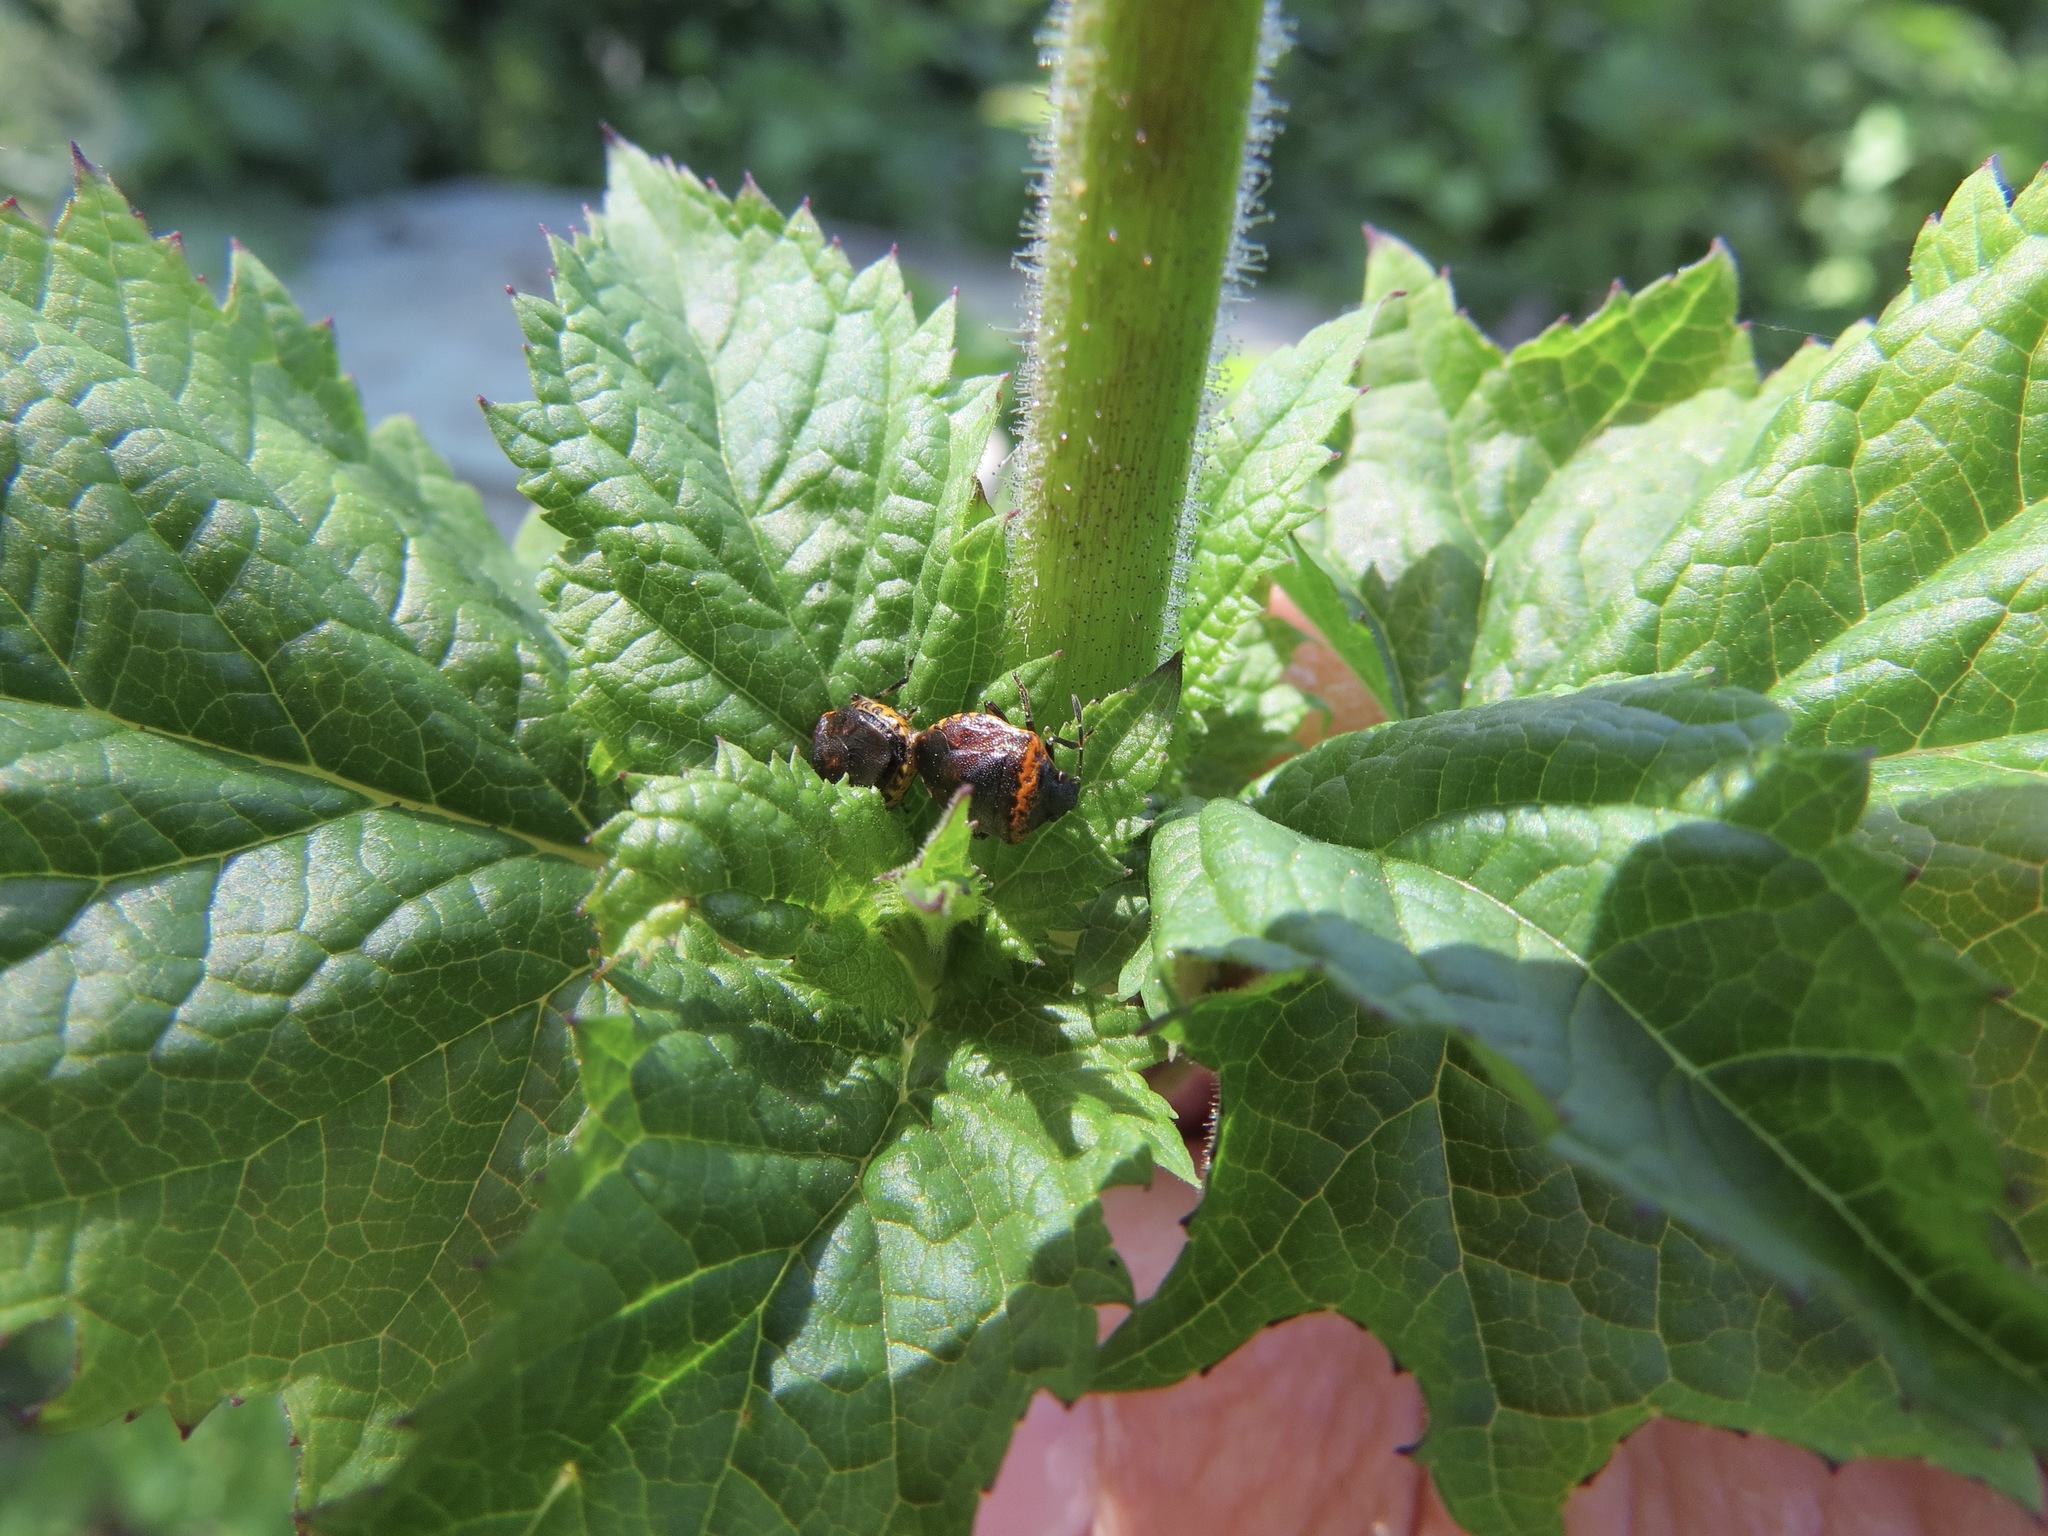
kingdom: Animalia
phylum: Arthropoda
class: Insecta
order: Hemiptera
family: Pentatomidae
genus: Cosmopepla
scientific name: Cosmopepla uhleri
